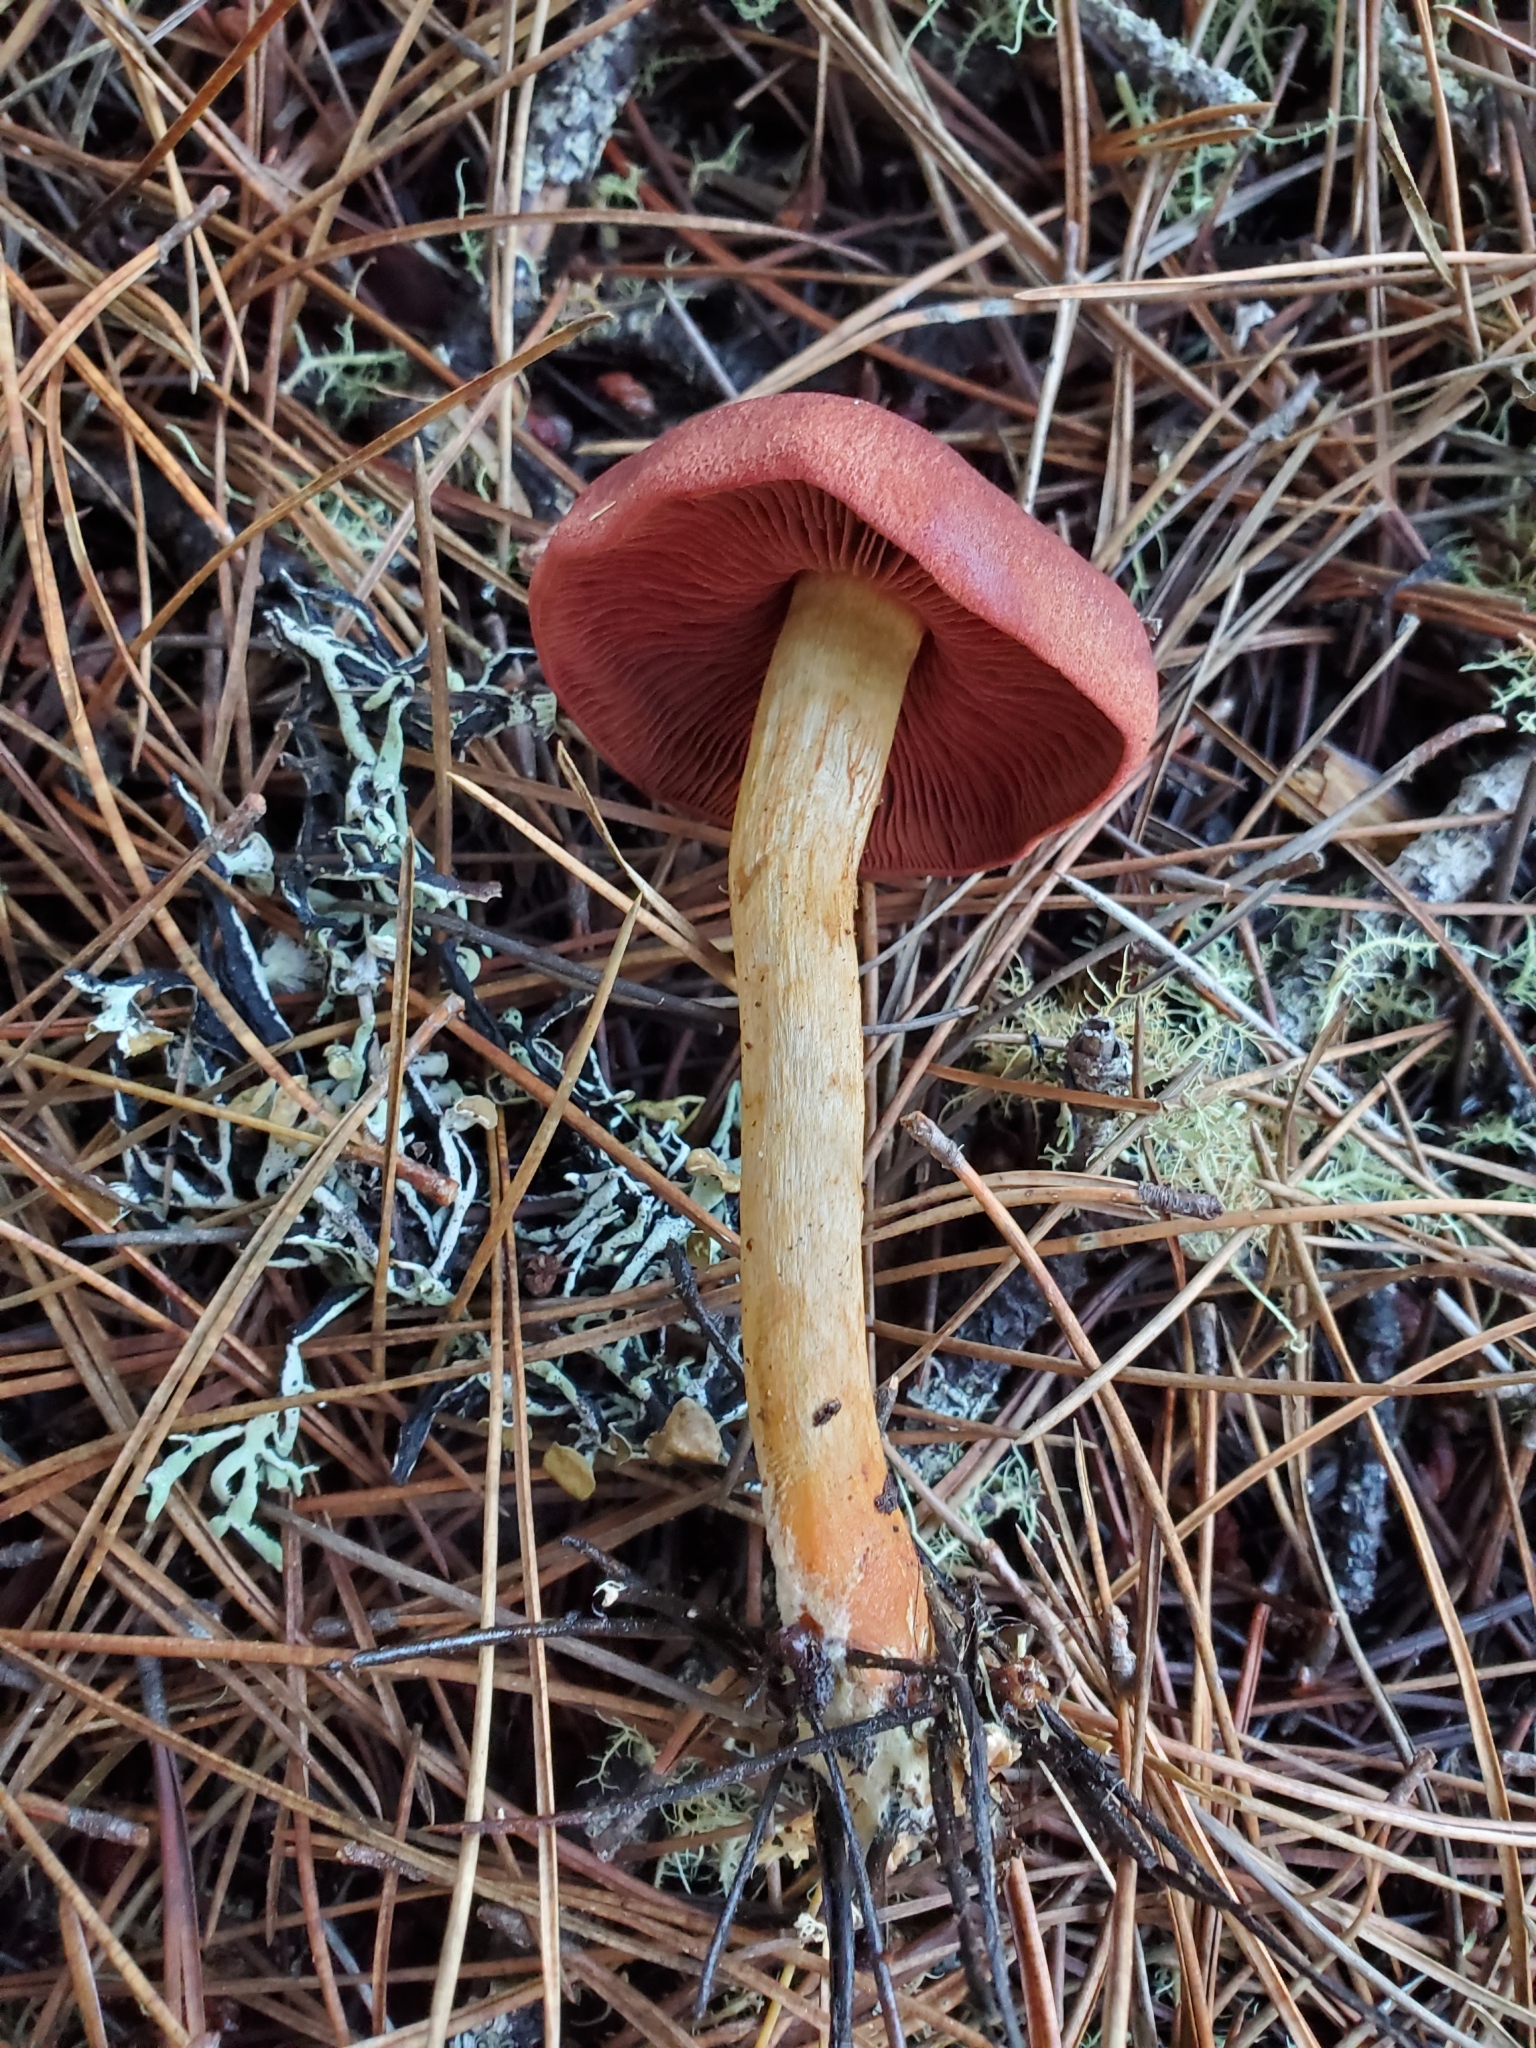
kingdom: Fungi
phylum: Basidiomycota
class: Agaricomycetes
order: Agaricales
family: Cortinariaceae
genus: Cortinarius
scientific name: Cortinarius smithii
